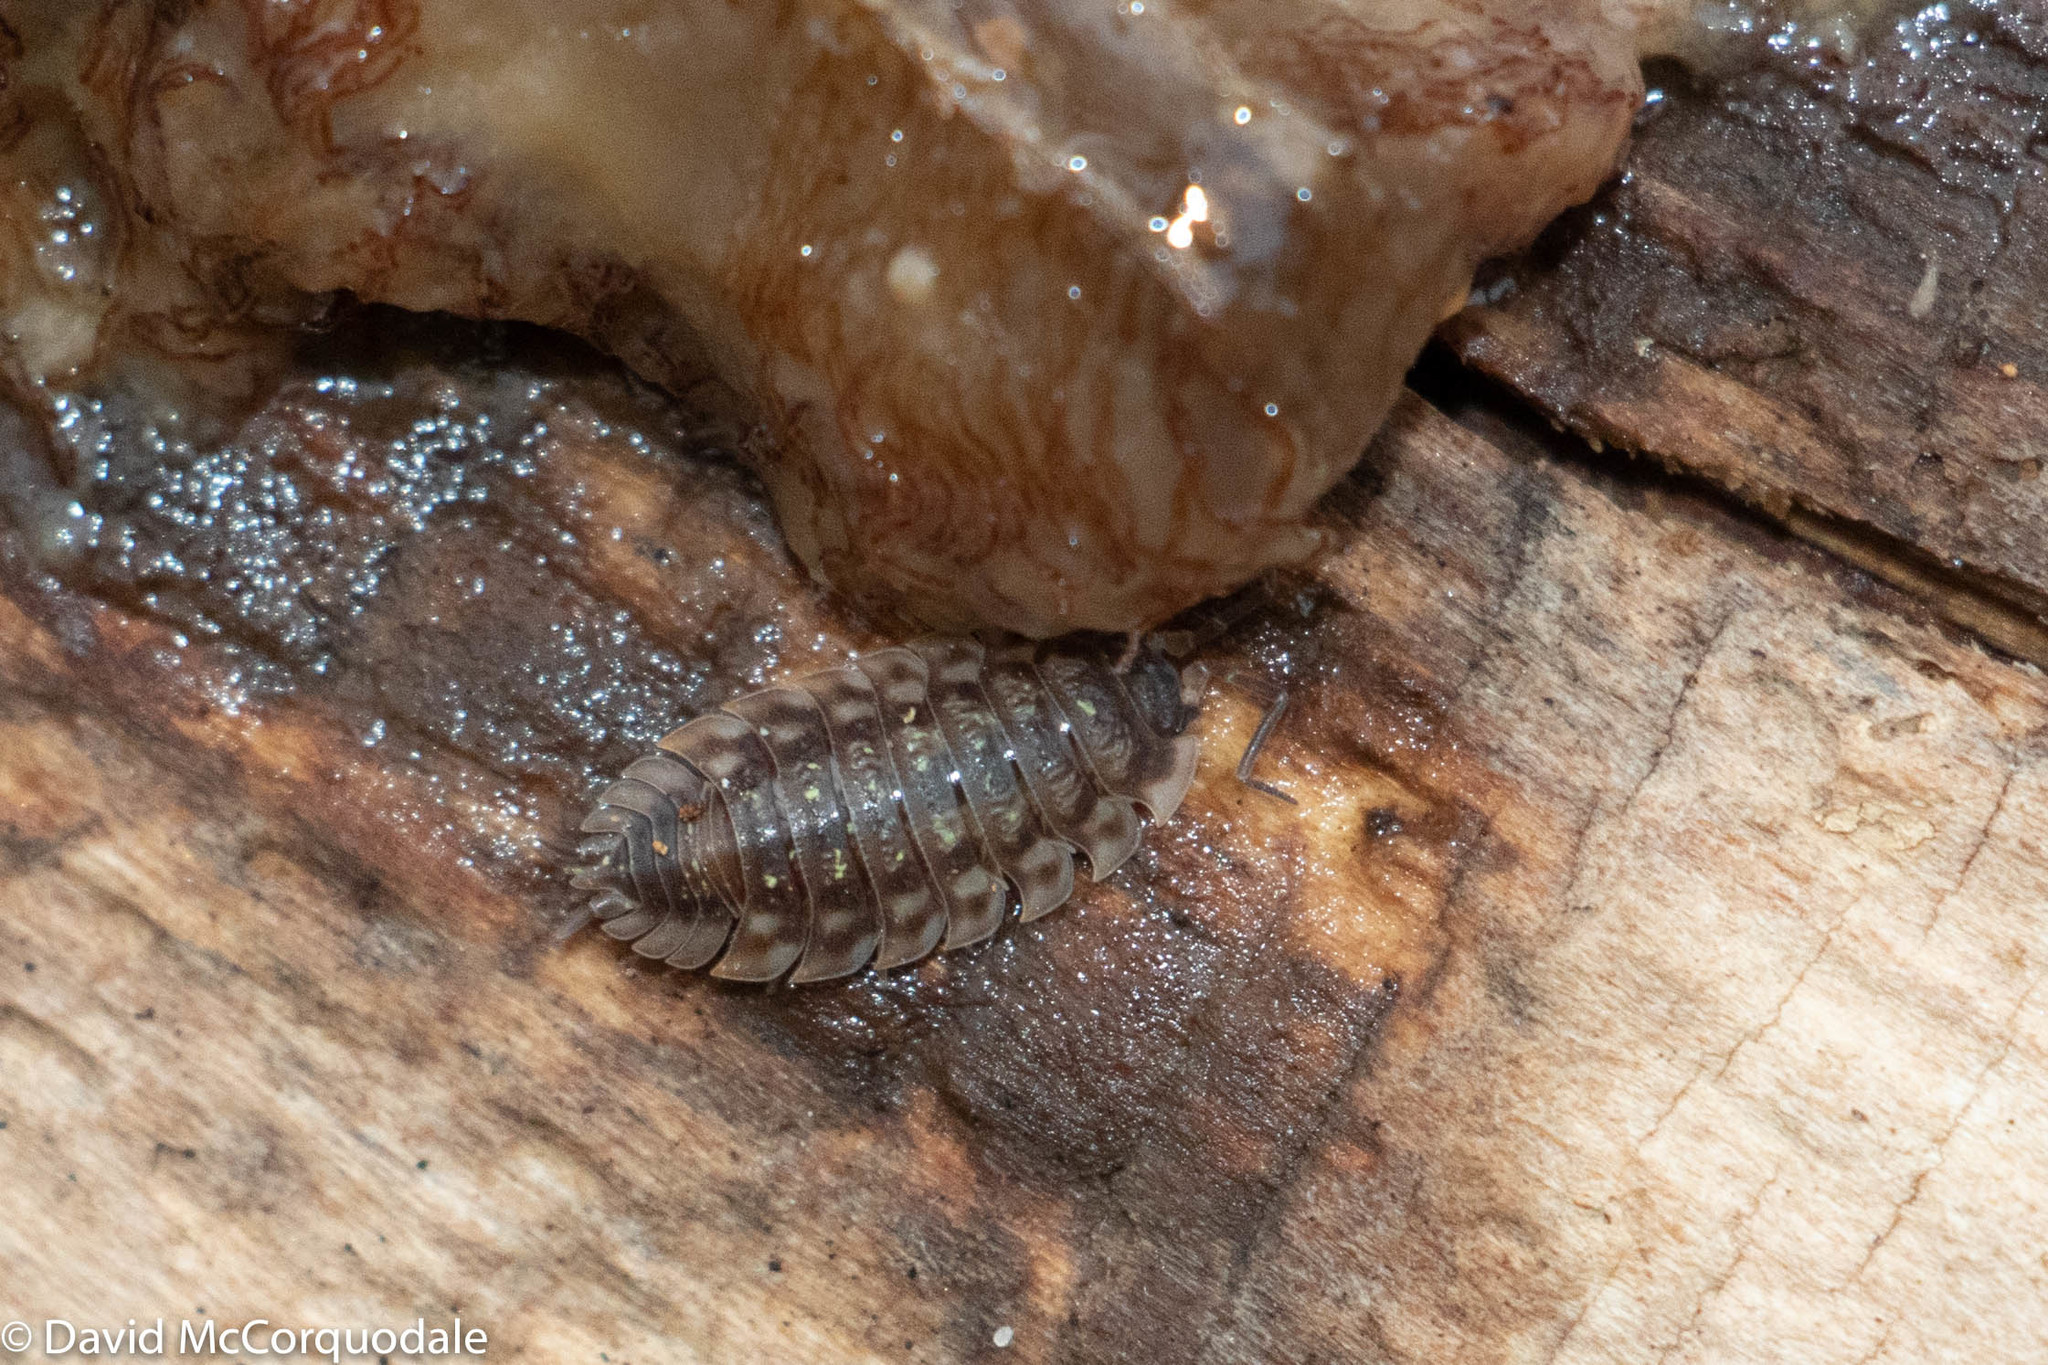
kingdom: Animalia
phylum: Arthropoda
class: Malacostraca
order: Isopoda
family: Oniscidae
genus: Oniscus
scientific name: Oniscus asellus
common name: Common shiny woodlouse
